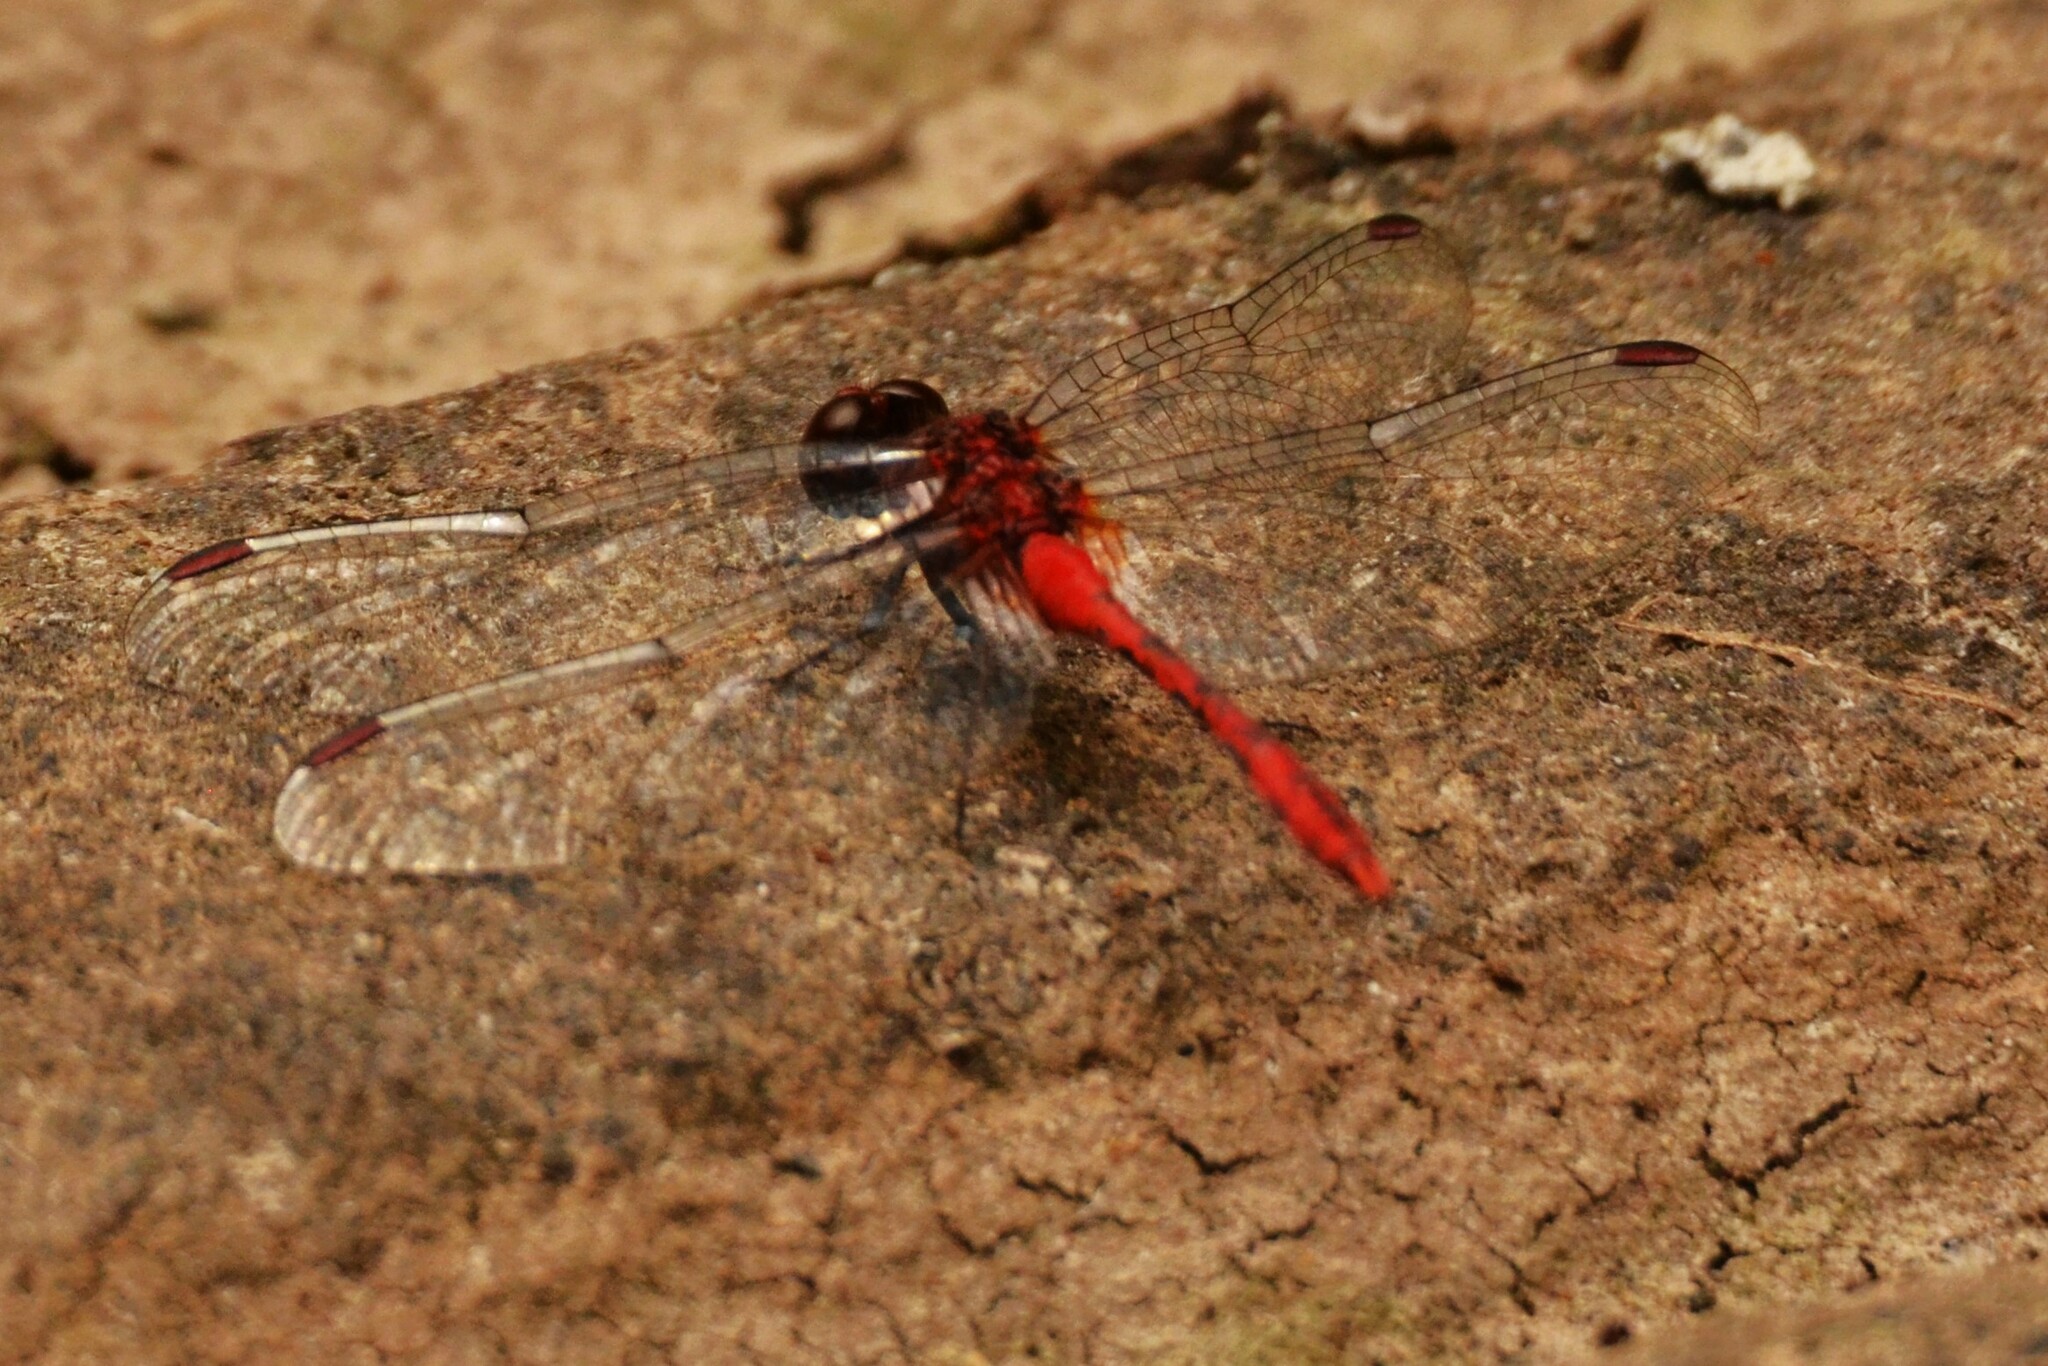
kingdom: Animalia
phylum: Arthropoda
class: Insecta
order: Odonata
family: Libellulidae
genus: Diplacodes
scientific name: Diplacodes bipunctata
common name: Red percher dragonfly
